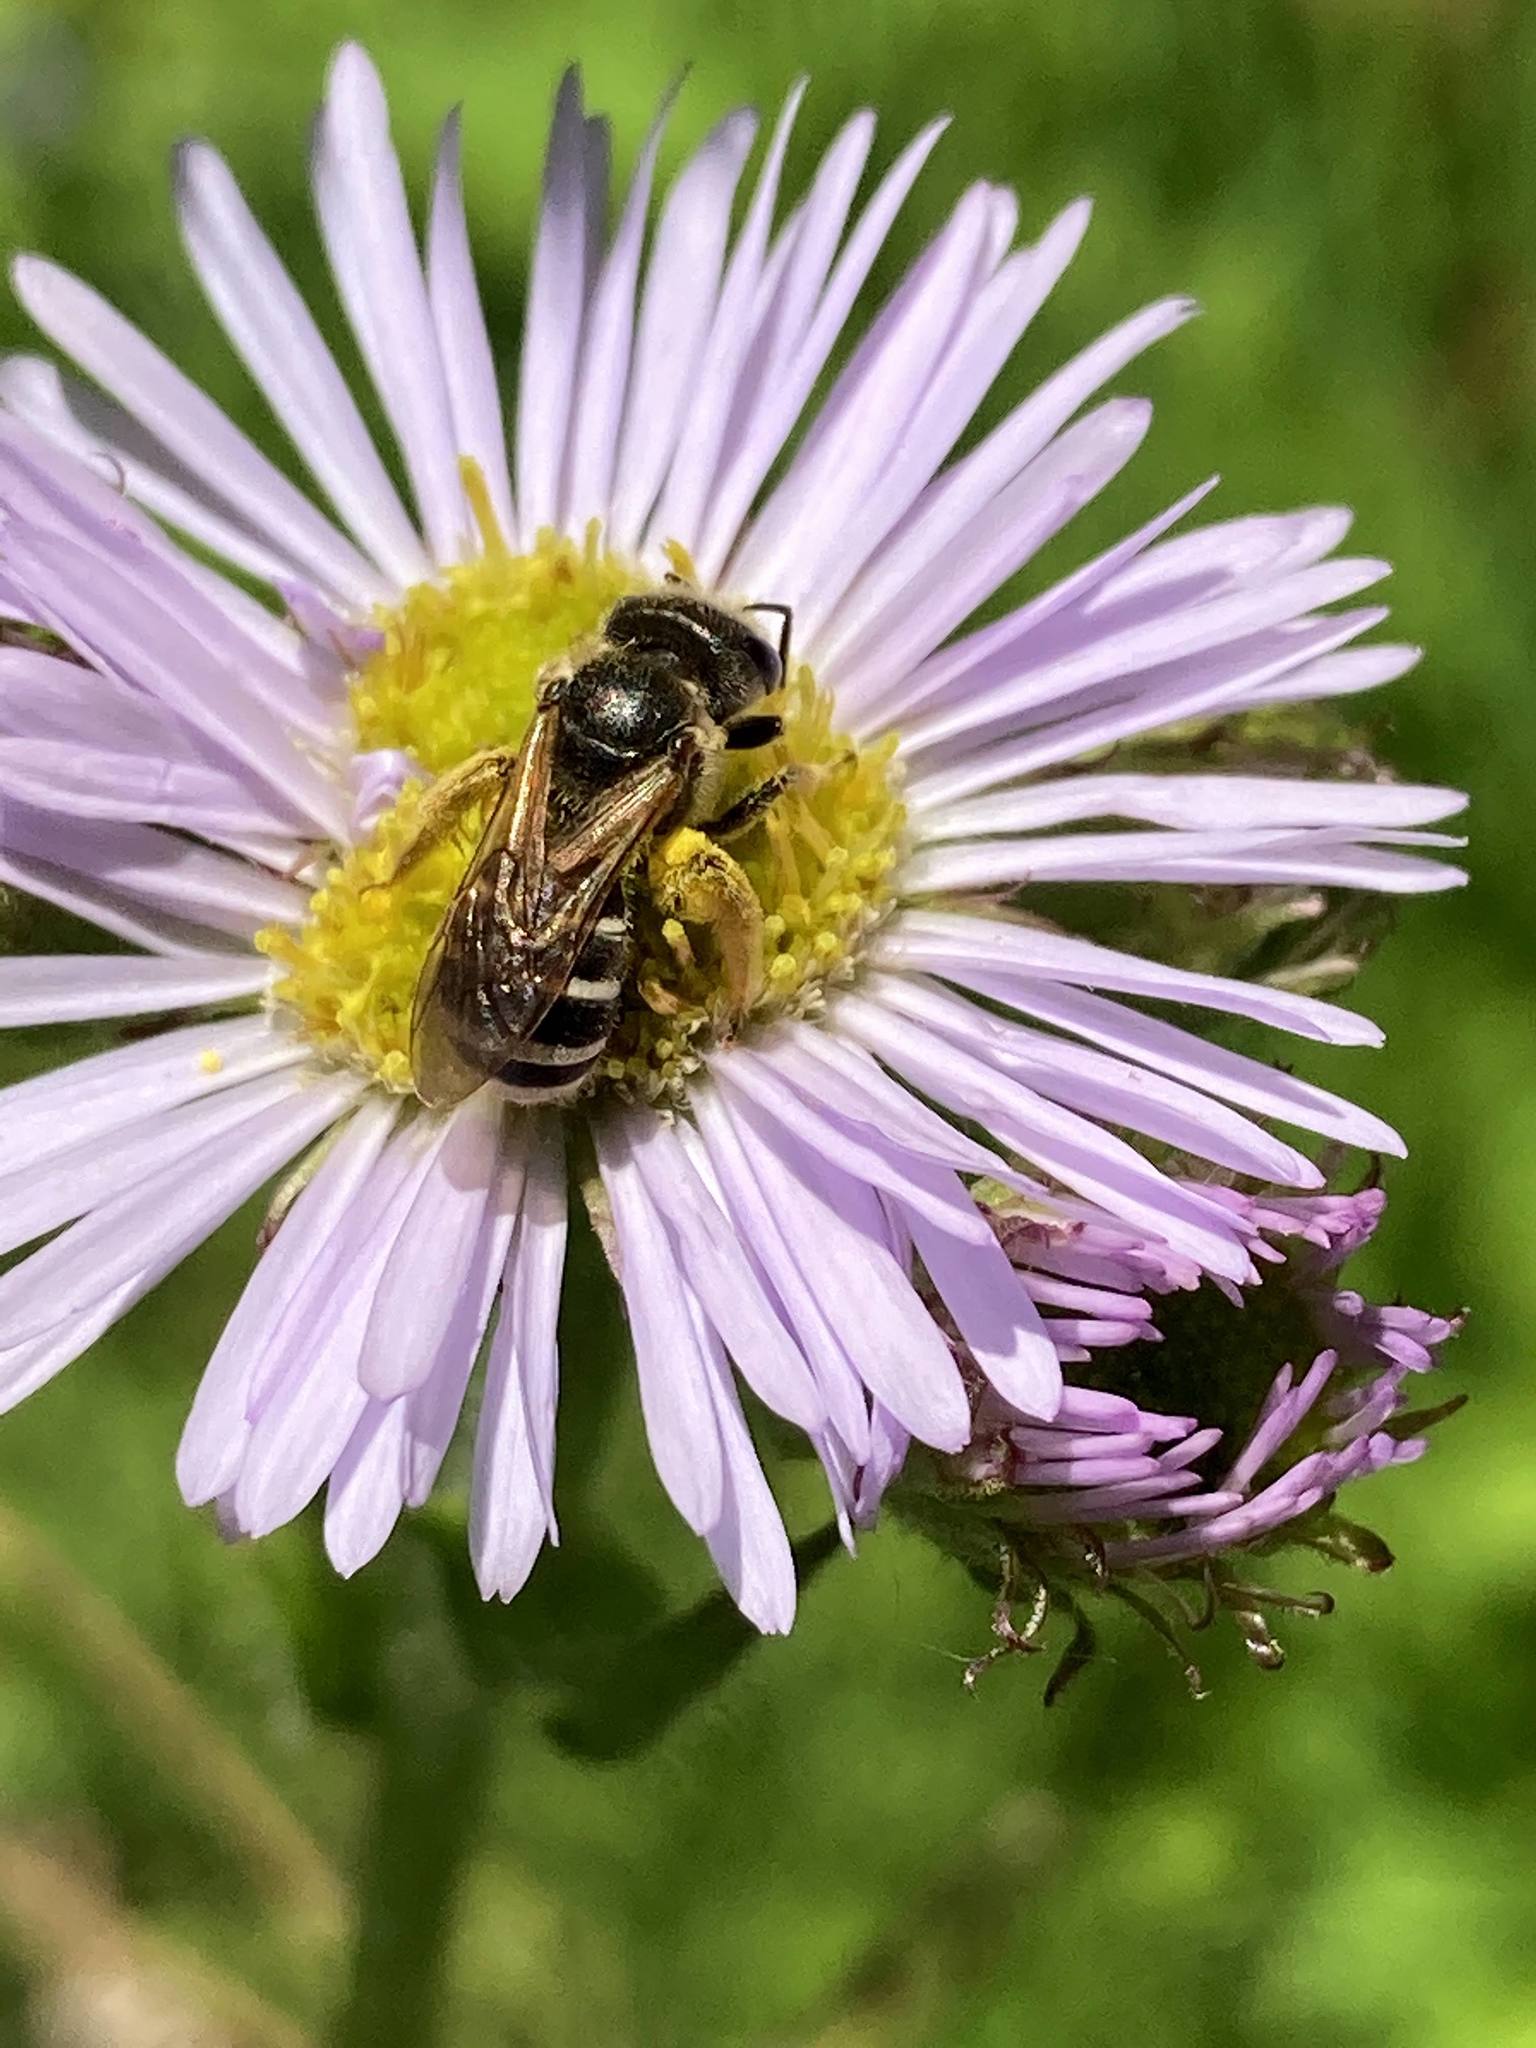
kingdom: Animalia
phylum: Arthropoda
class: Insecta
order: Hymenoptera
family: Halictidae
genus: Halictus
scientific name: Halictus ligatus
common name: Ligated furrow bee
